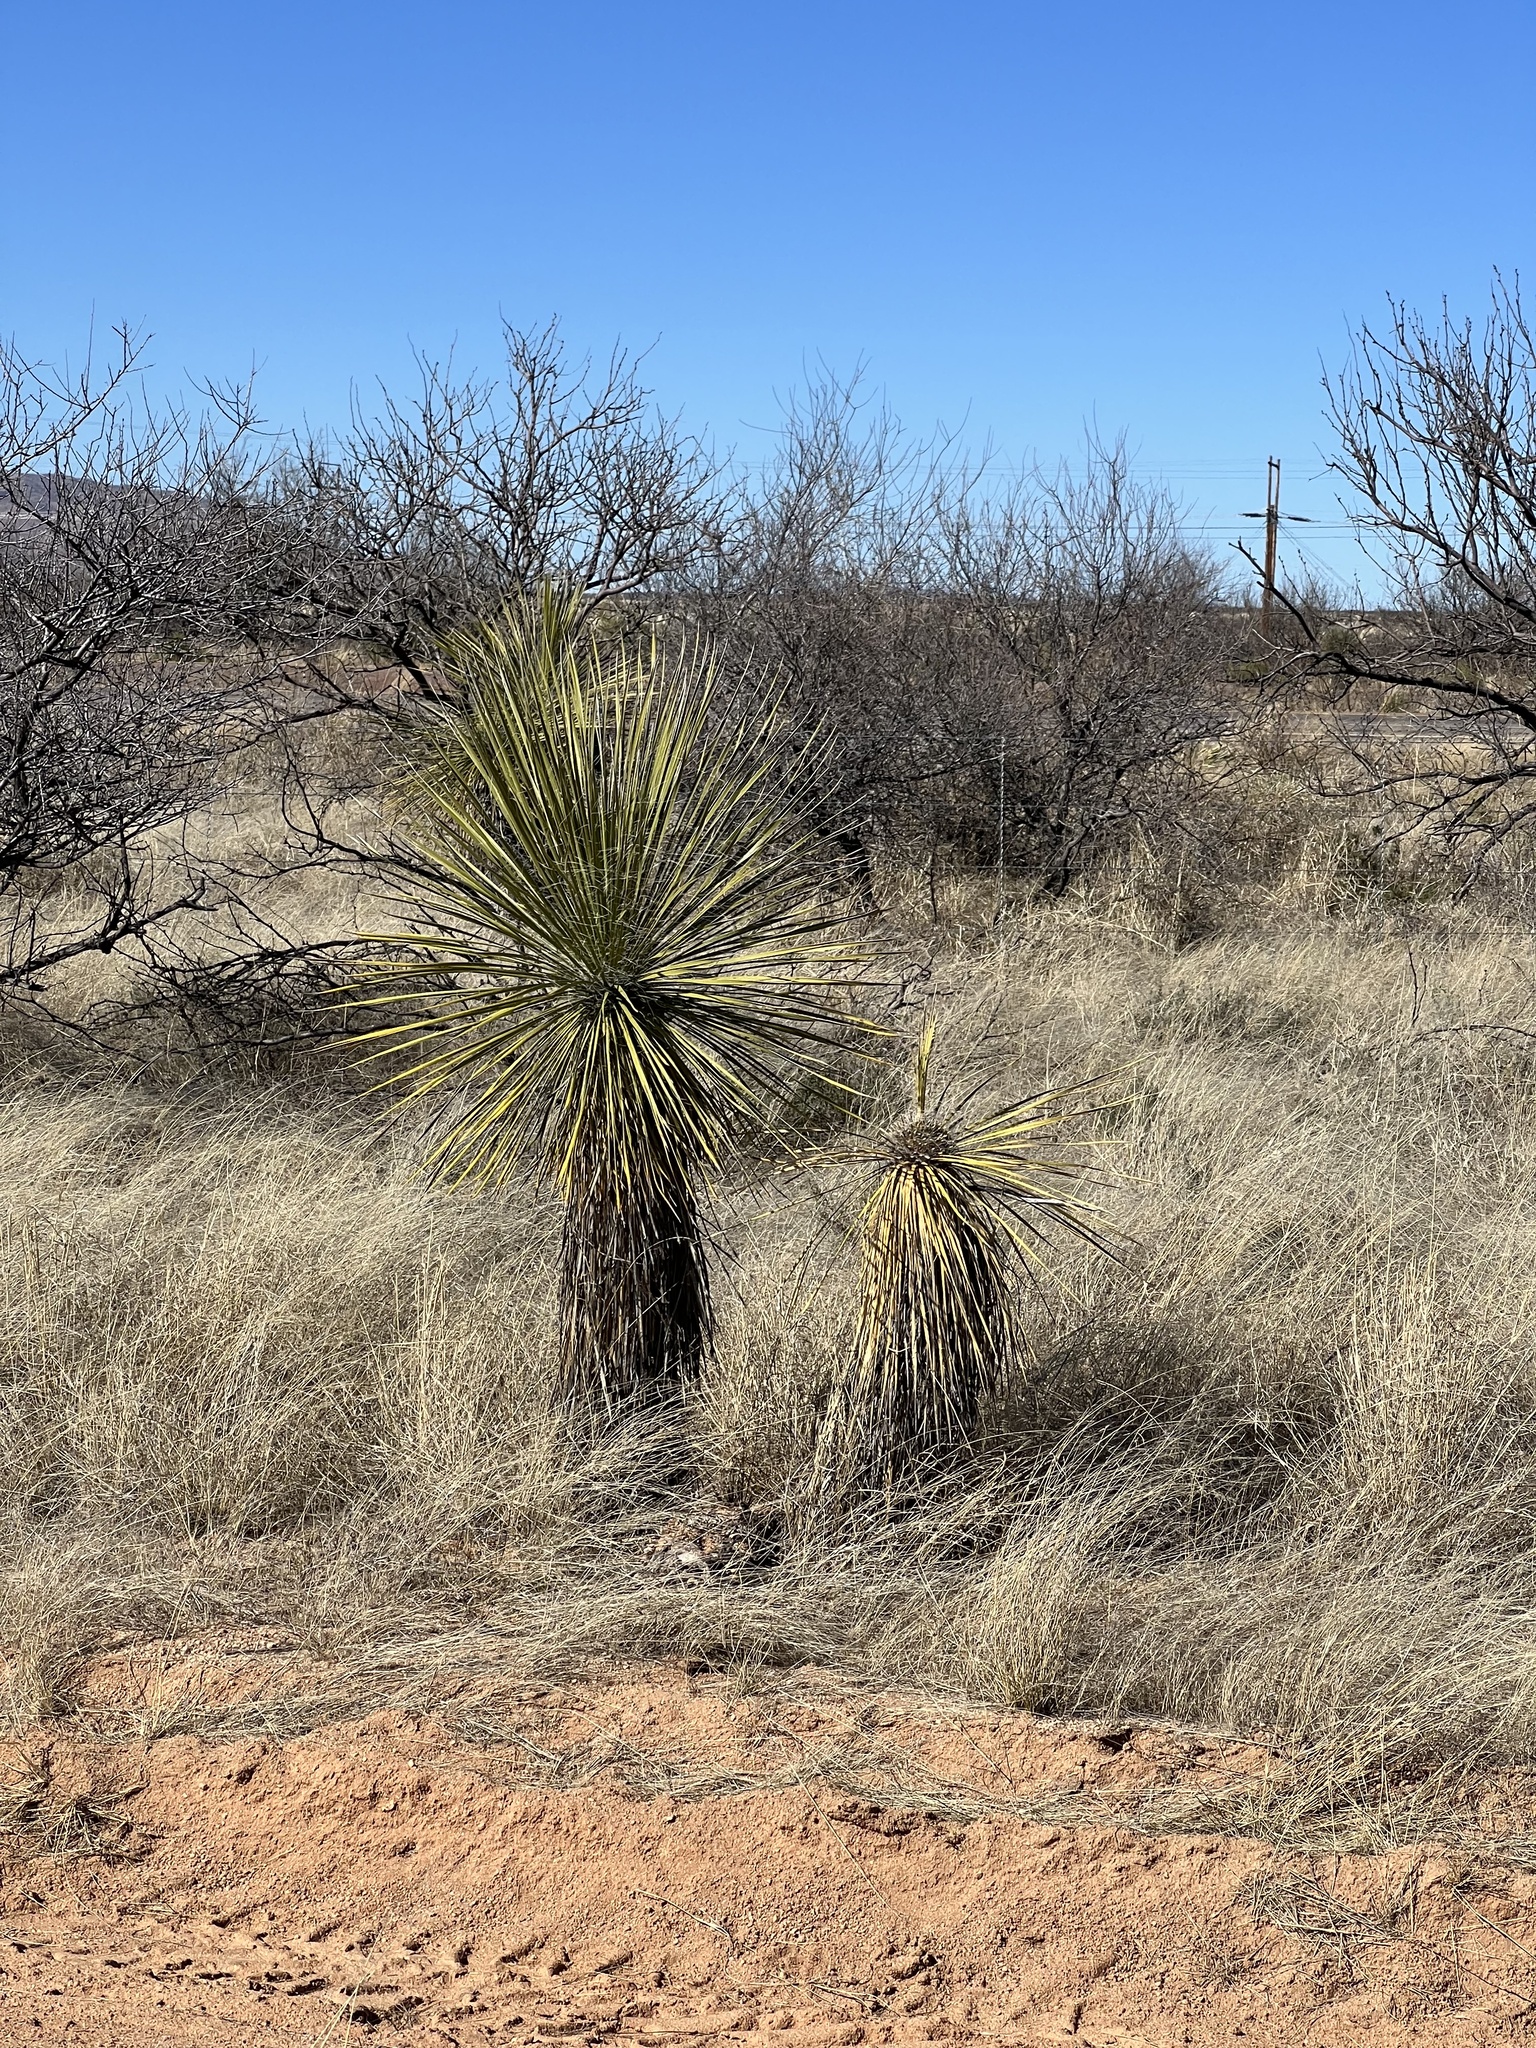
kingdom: Plantae
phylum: Tracheophyta
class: Liliopsida
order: Asparagales
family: Asparagaceae
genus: Yucca
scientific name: Yucca elata
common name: Palmella
